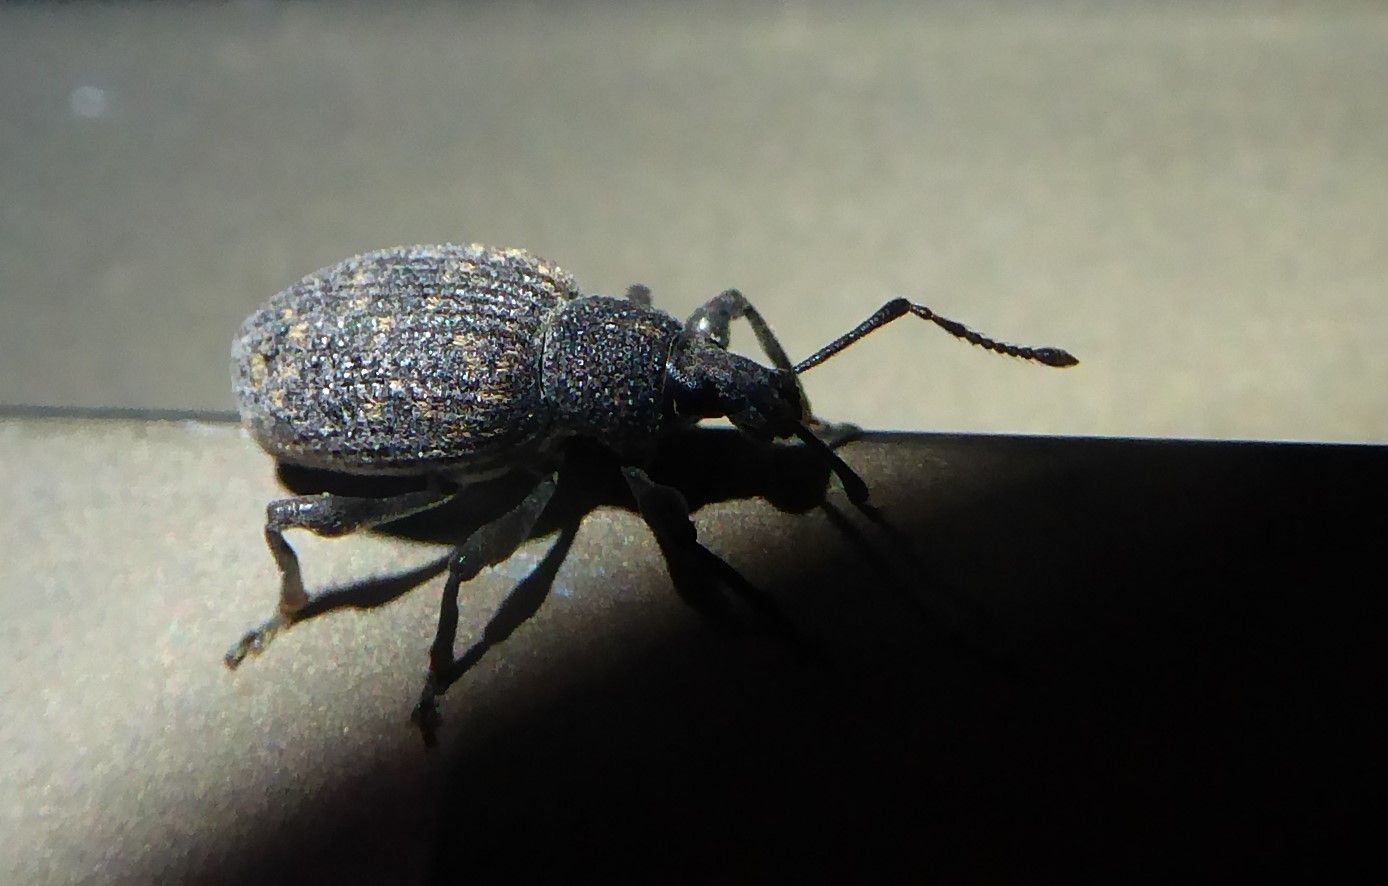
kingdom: Animalia
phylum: Arthropoda
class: Insecta
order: Coleoptera
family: Curculionidae
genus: Otiorhynchus
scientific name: Otiorhynchus sulcatus
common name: Black vine weevil
